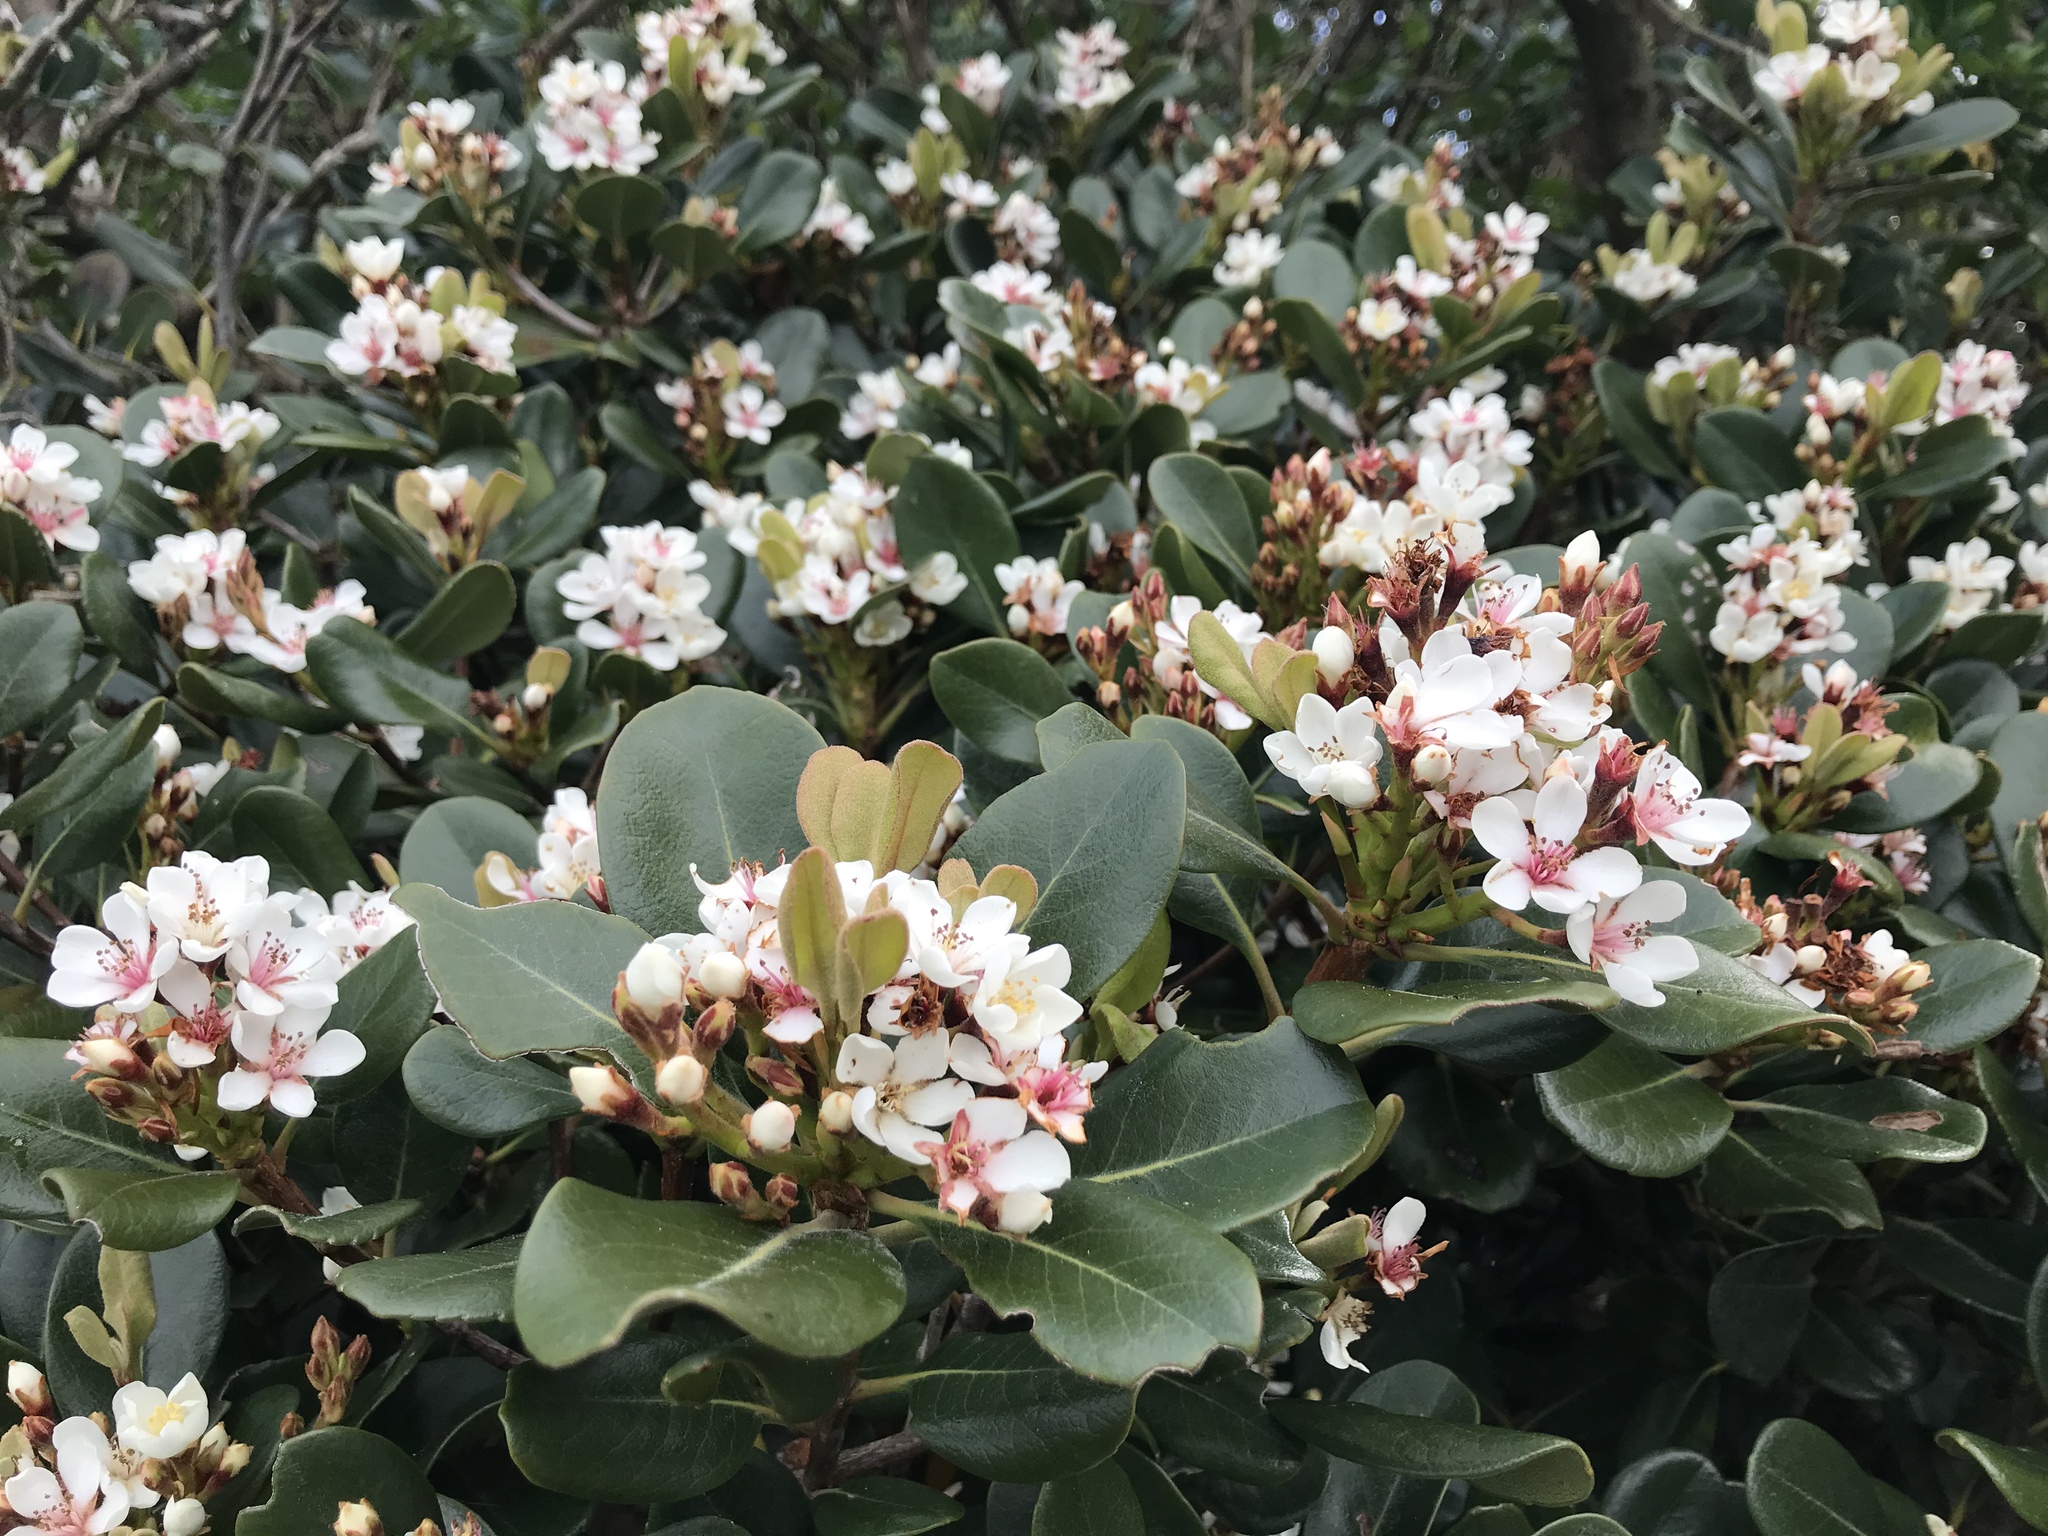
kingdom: Plantae
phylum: Tracheophyta
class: Magnoliopsida
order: Rosales
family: Rosaceae
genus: Rhaphiolepis
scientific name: Rhaphiolepis indica
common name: India-hawthorn
